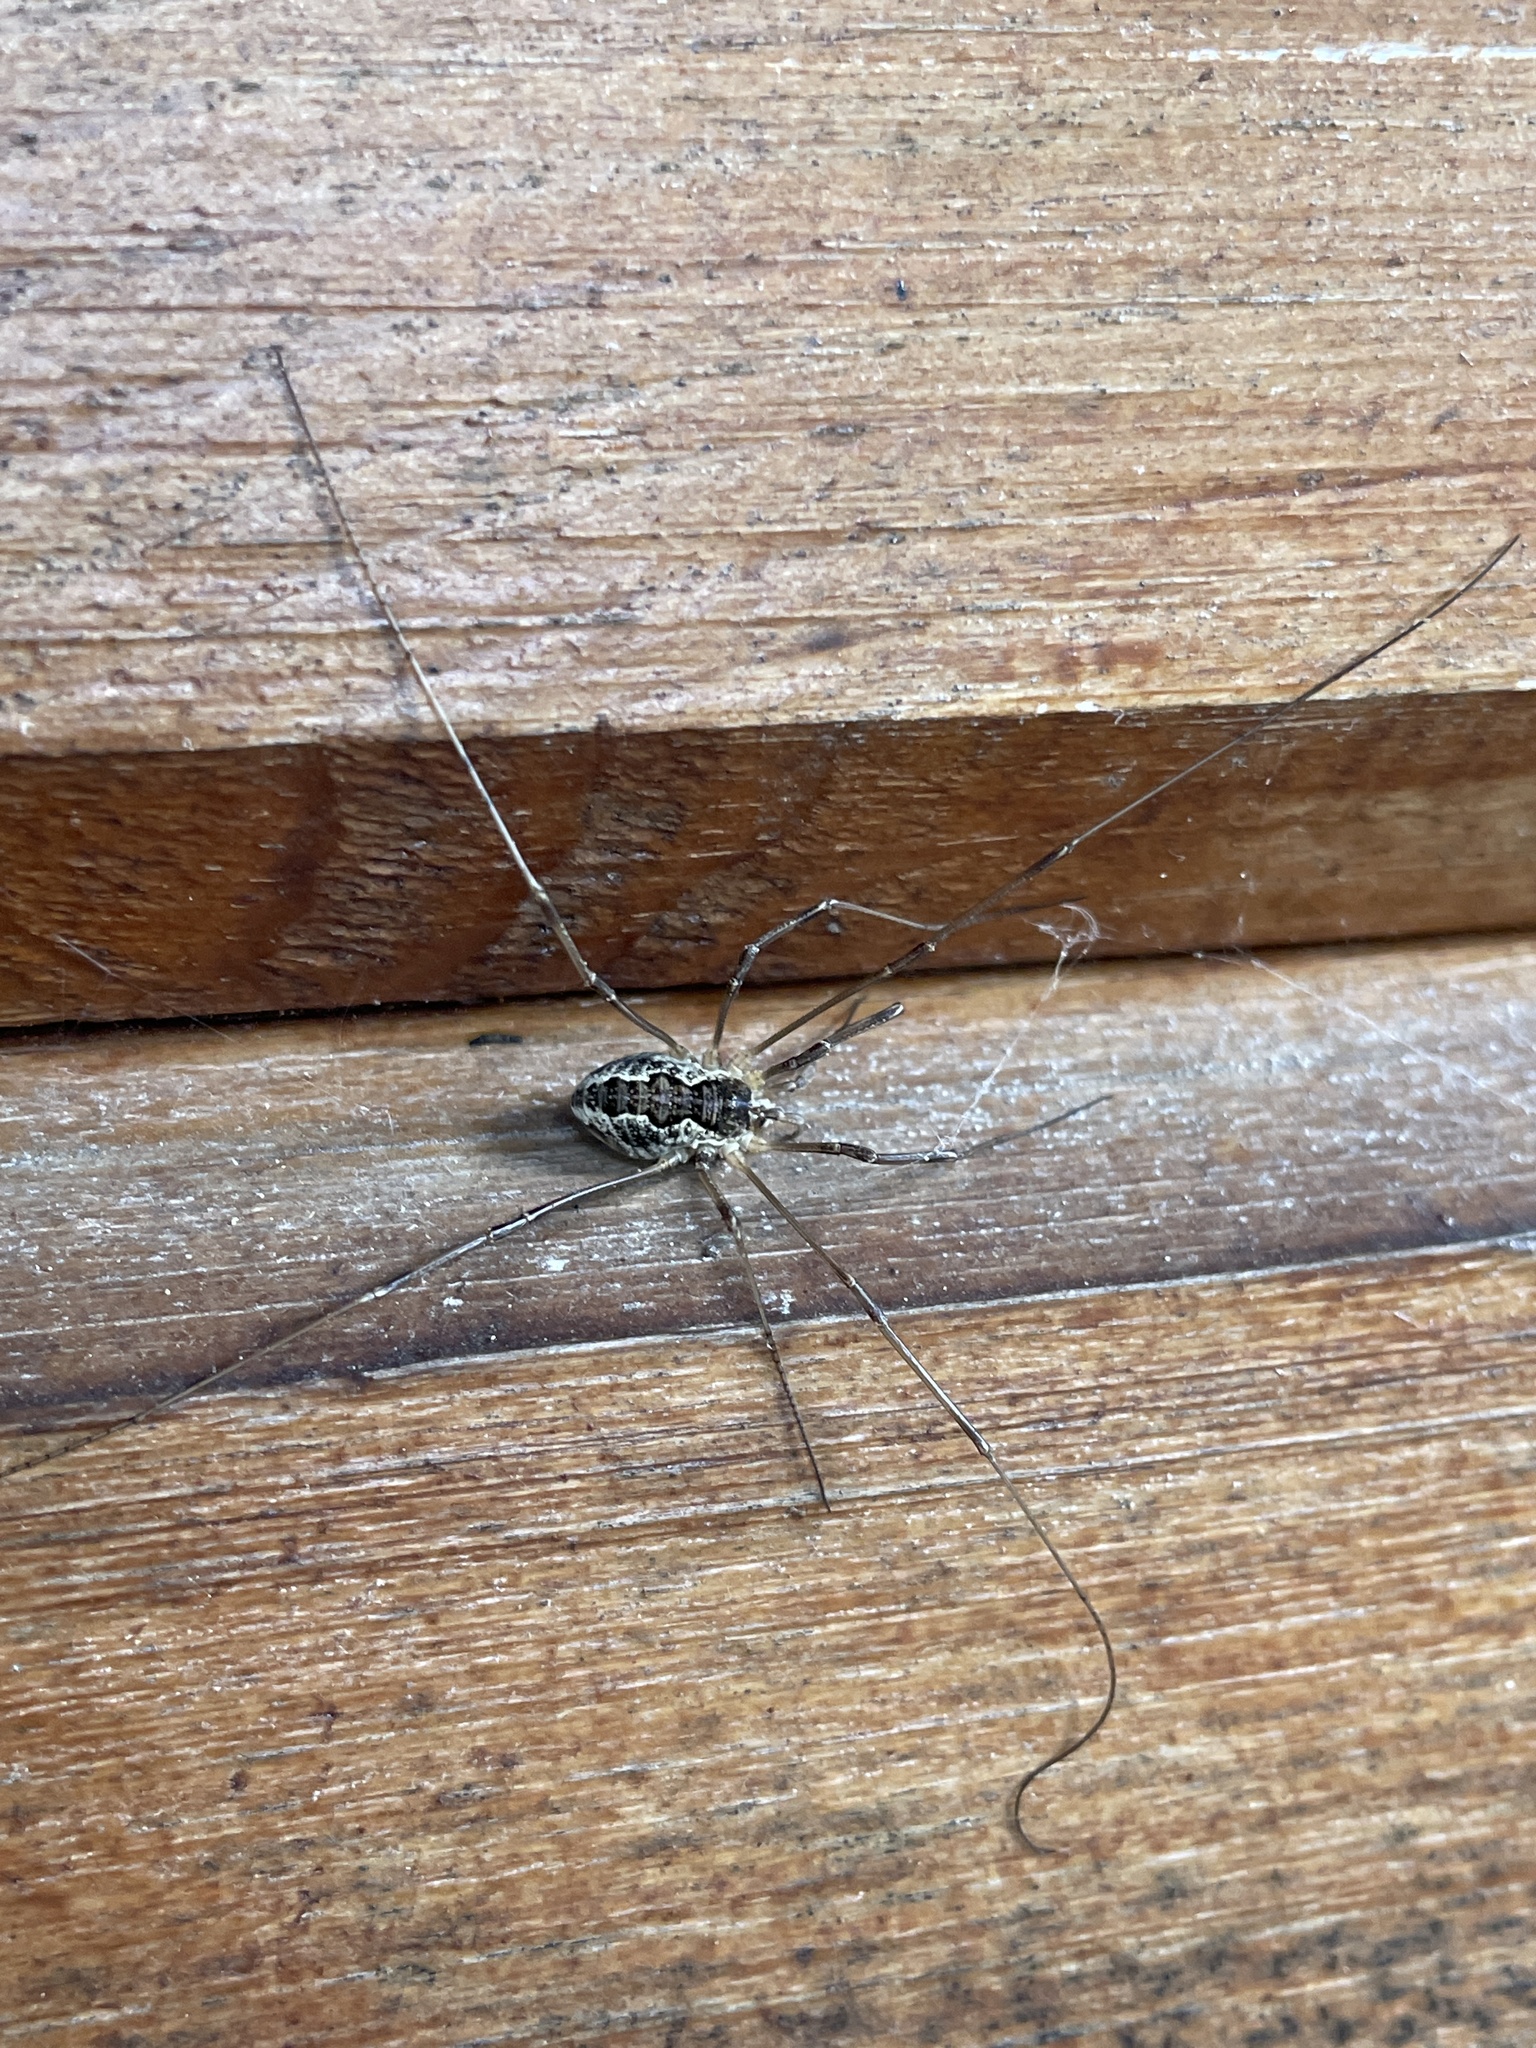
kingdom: Animalia
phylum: Arthropoda
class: Arachnida
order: Opiliones
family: Phalangiidae
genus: Mitopus
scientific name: Mitopus morio
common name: Saddleback harvestman
